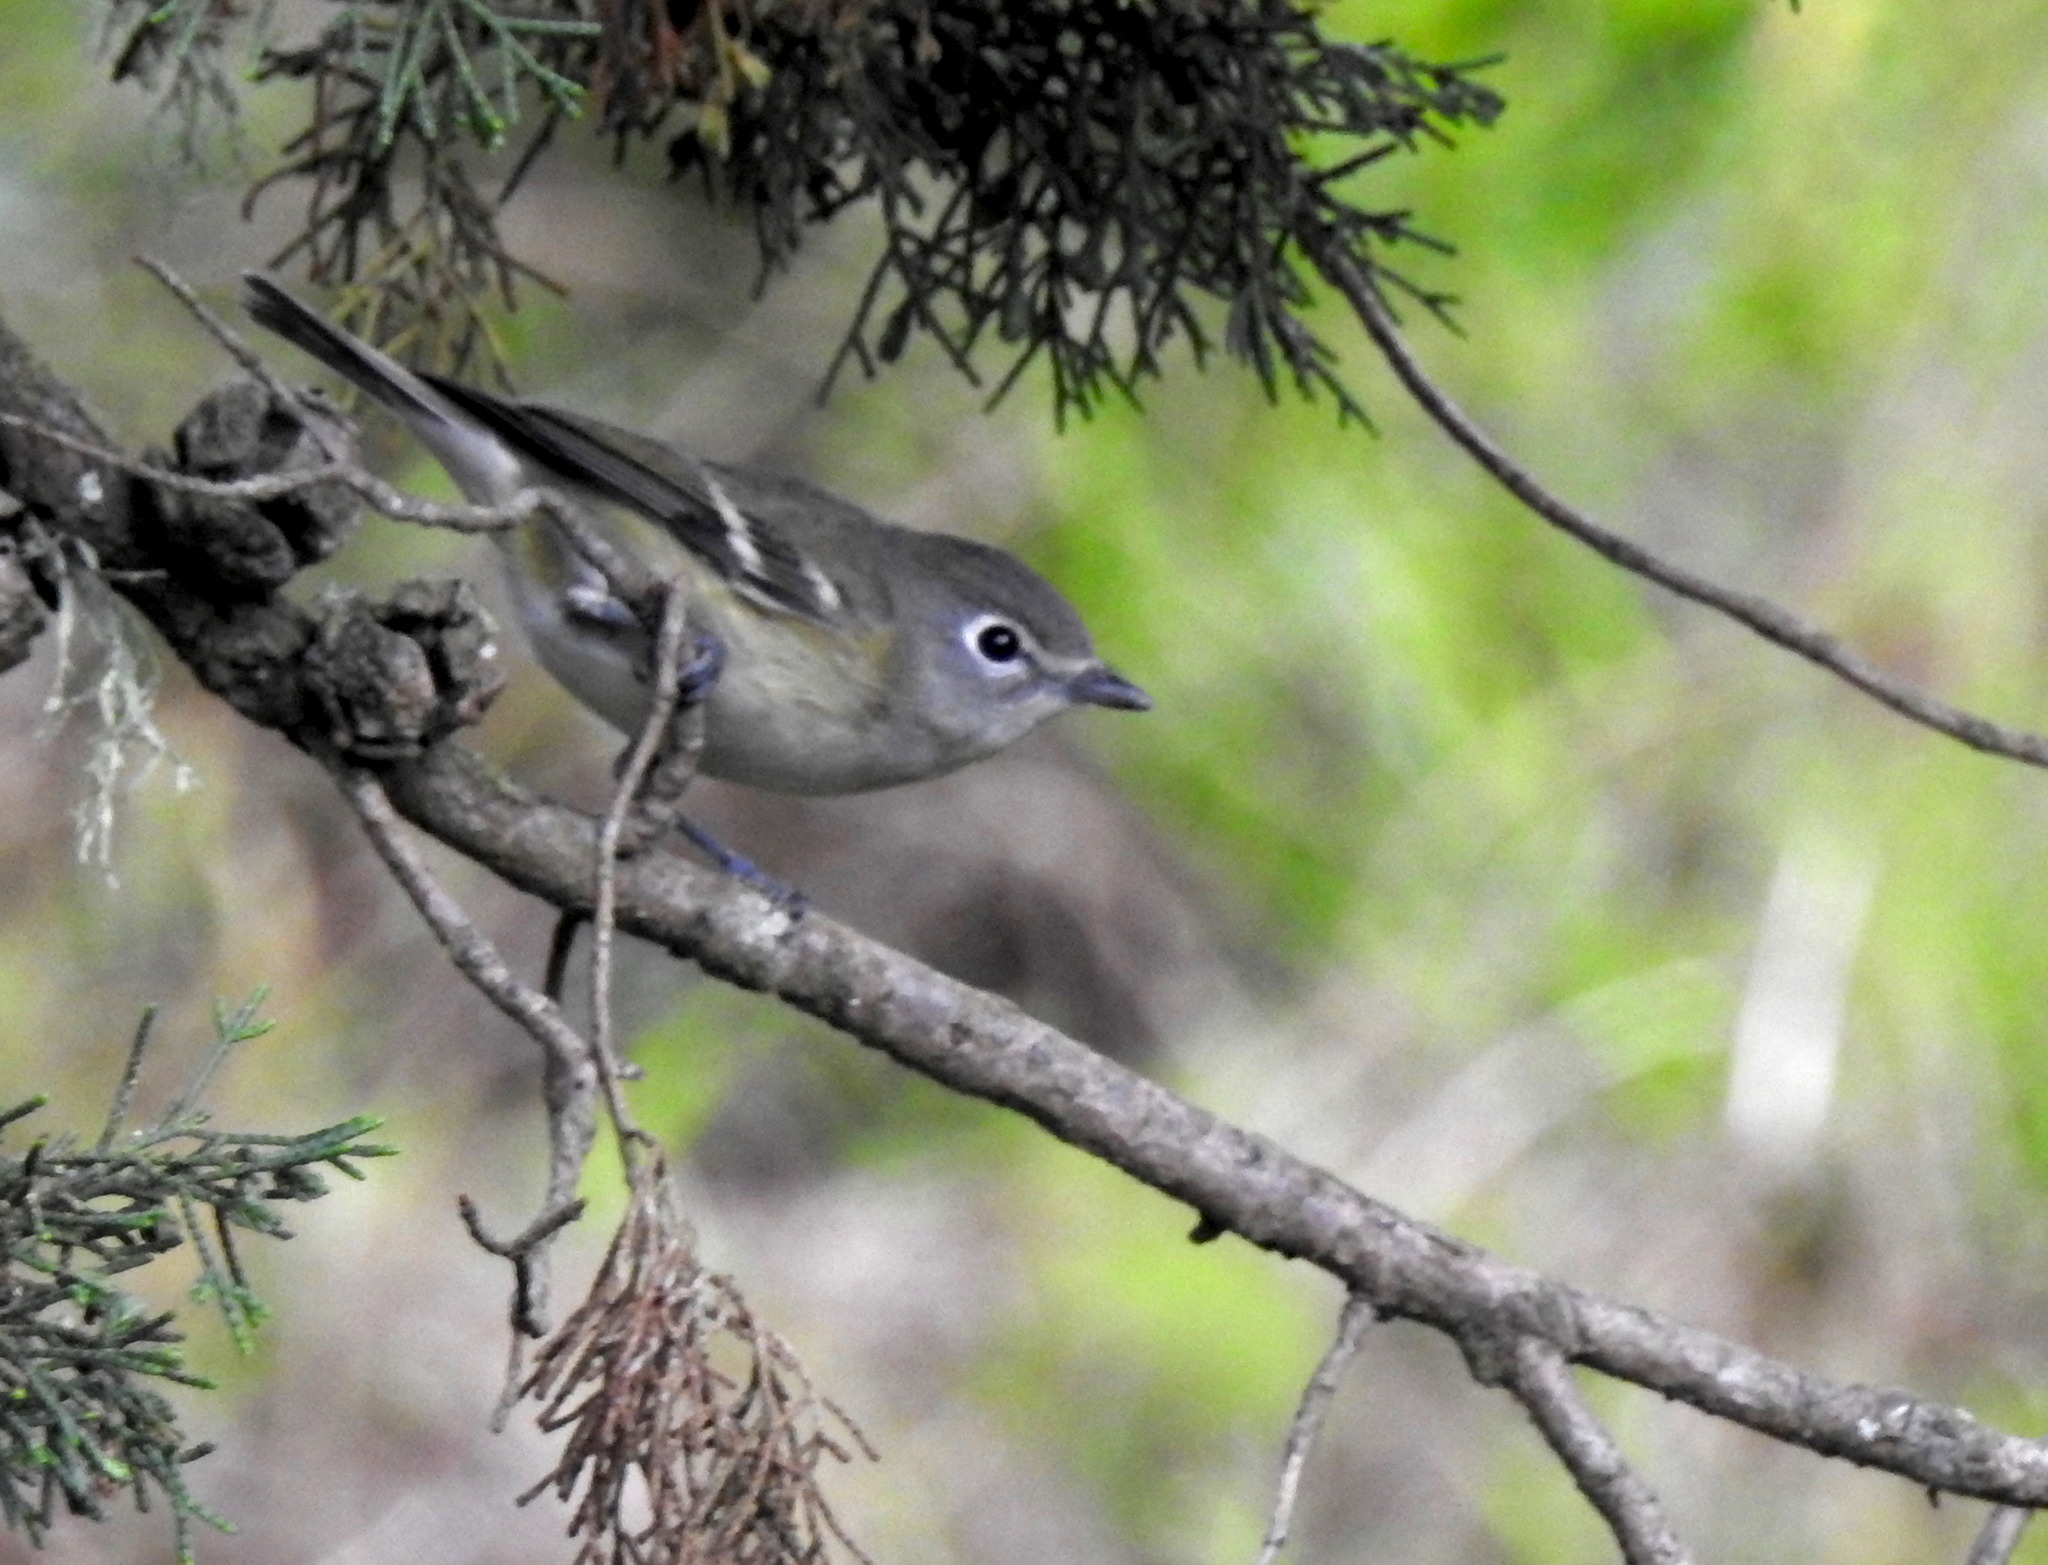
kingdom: Animalia
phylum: Chordata
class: Aves
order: Passeriformes
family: Vireonidae
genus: Vireo
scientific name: Vireo cassinii
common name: Cassin's vireo
